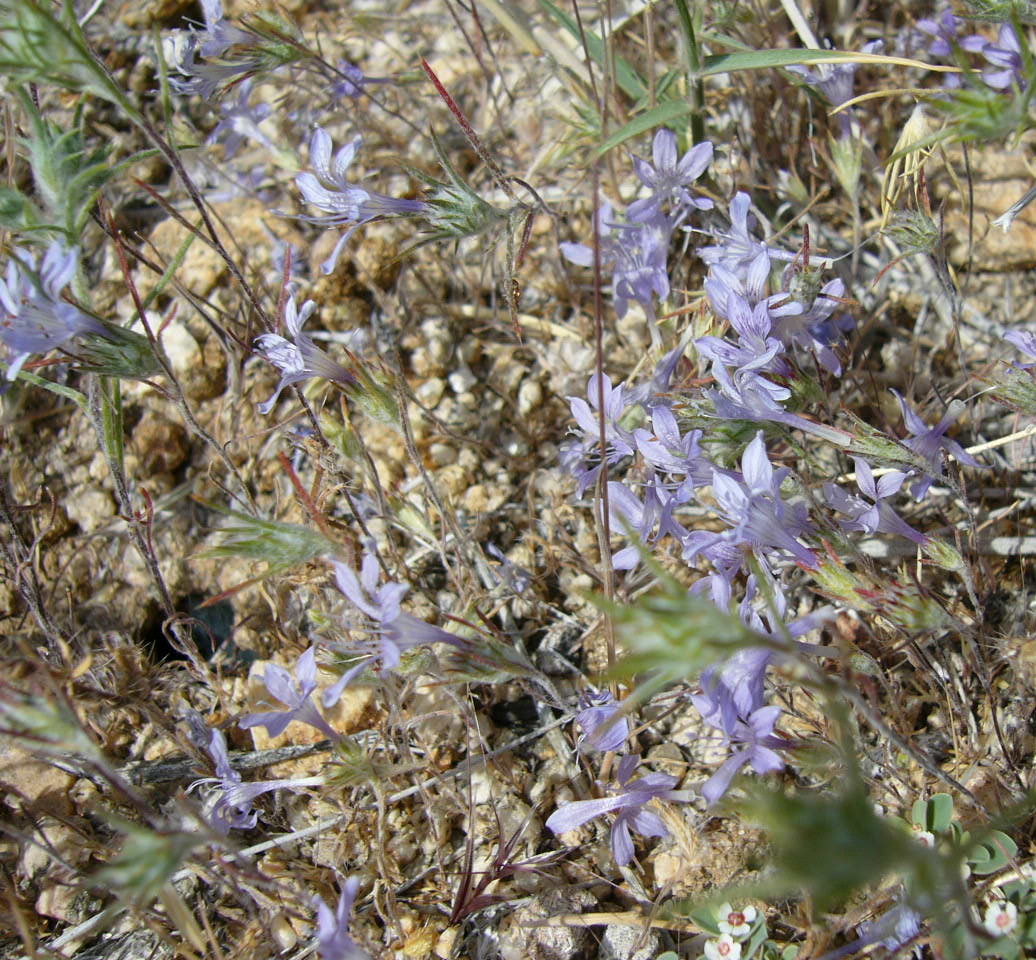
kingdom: Plantae
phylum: Tracheophyta
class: Magnoliopsida
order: Ericales
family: Polemoniaceae
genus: Eriastrum
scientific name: Eriastrum eremicum
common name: Desert eriastrum
